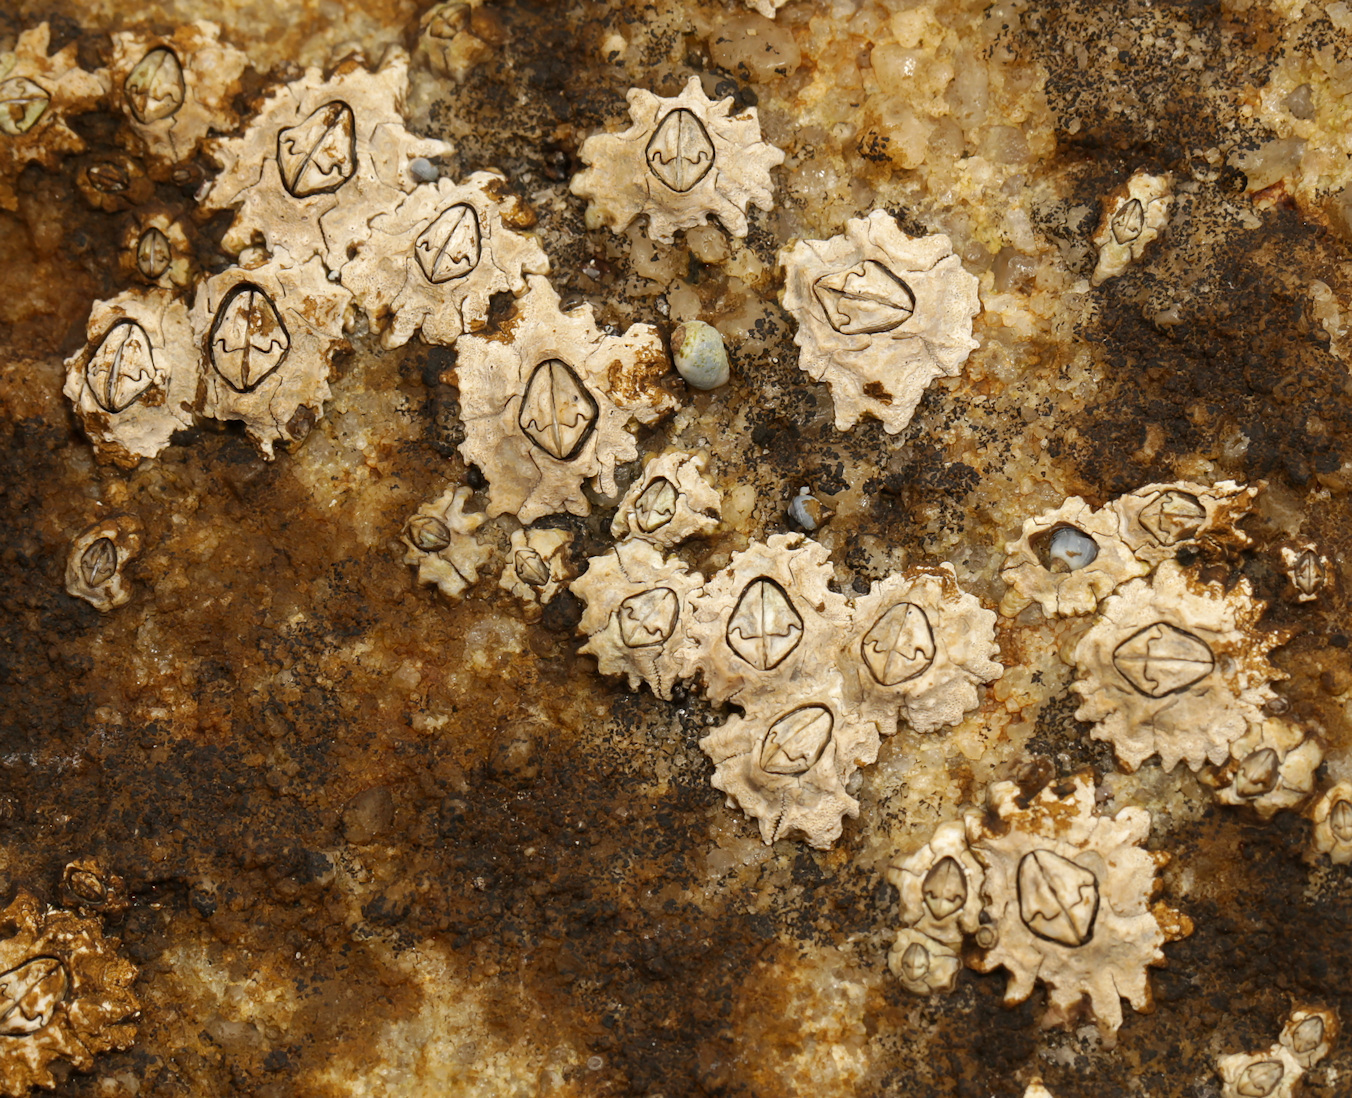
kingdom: Animalia
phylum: Arthropoda
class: Maxillopoda
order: Sessilia
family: Chthamalidae
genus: Chthamalus
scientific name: Chthamalus dentatus
